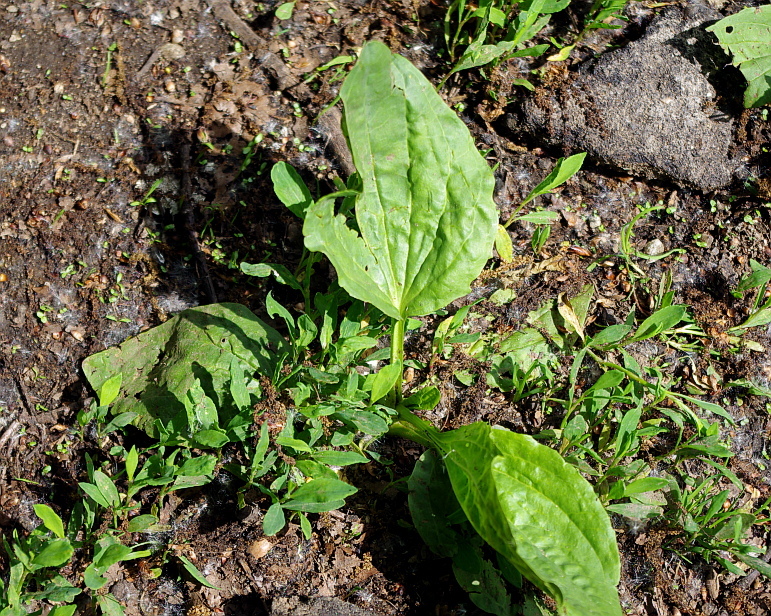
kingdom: Plantae
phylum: Tracheophyta
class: Magnoliopsida
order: Lamiales
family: Plantaginaceae
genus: Plantago
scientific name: Plantago major
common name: Common plantain
